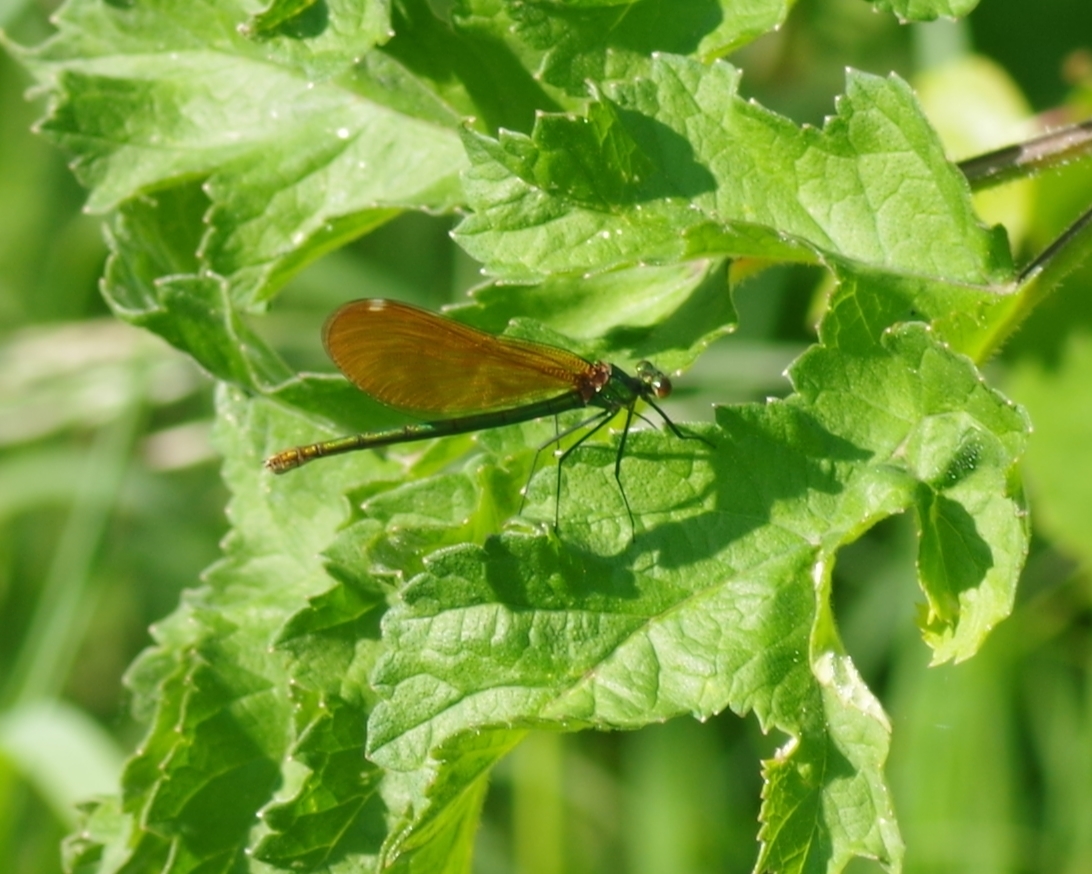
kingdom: Animalia
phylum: Arthropoda
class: Insecta
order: Odonata
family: Calopterygidae
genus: Calopteryx
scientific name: Calopteryx virgo
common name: Beautiful demoiselle
